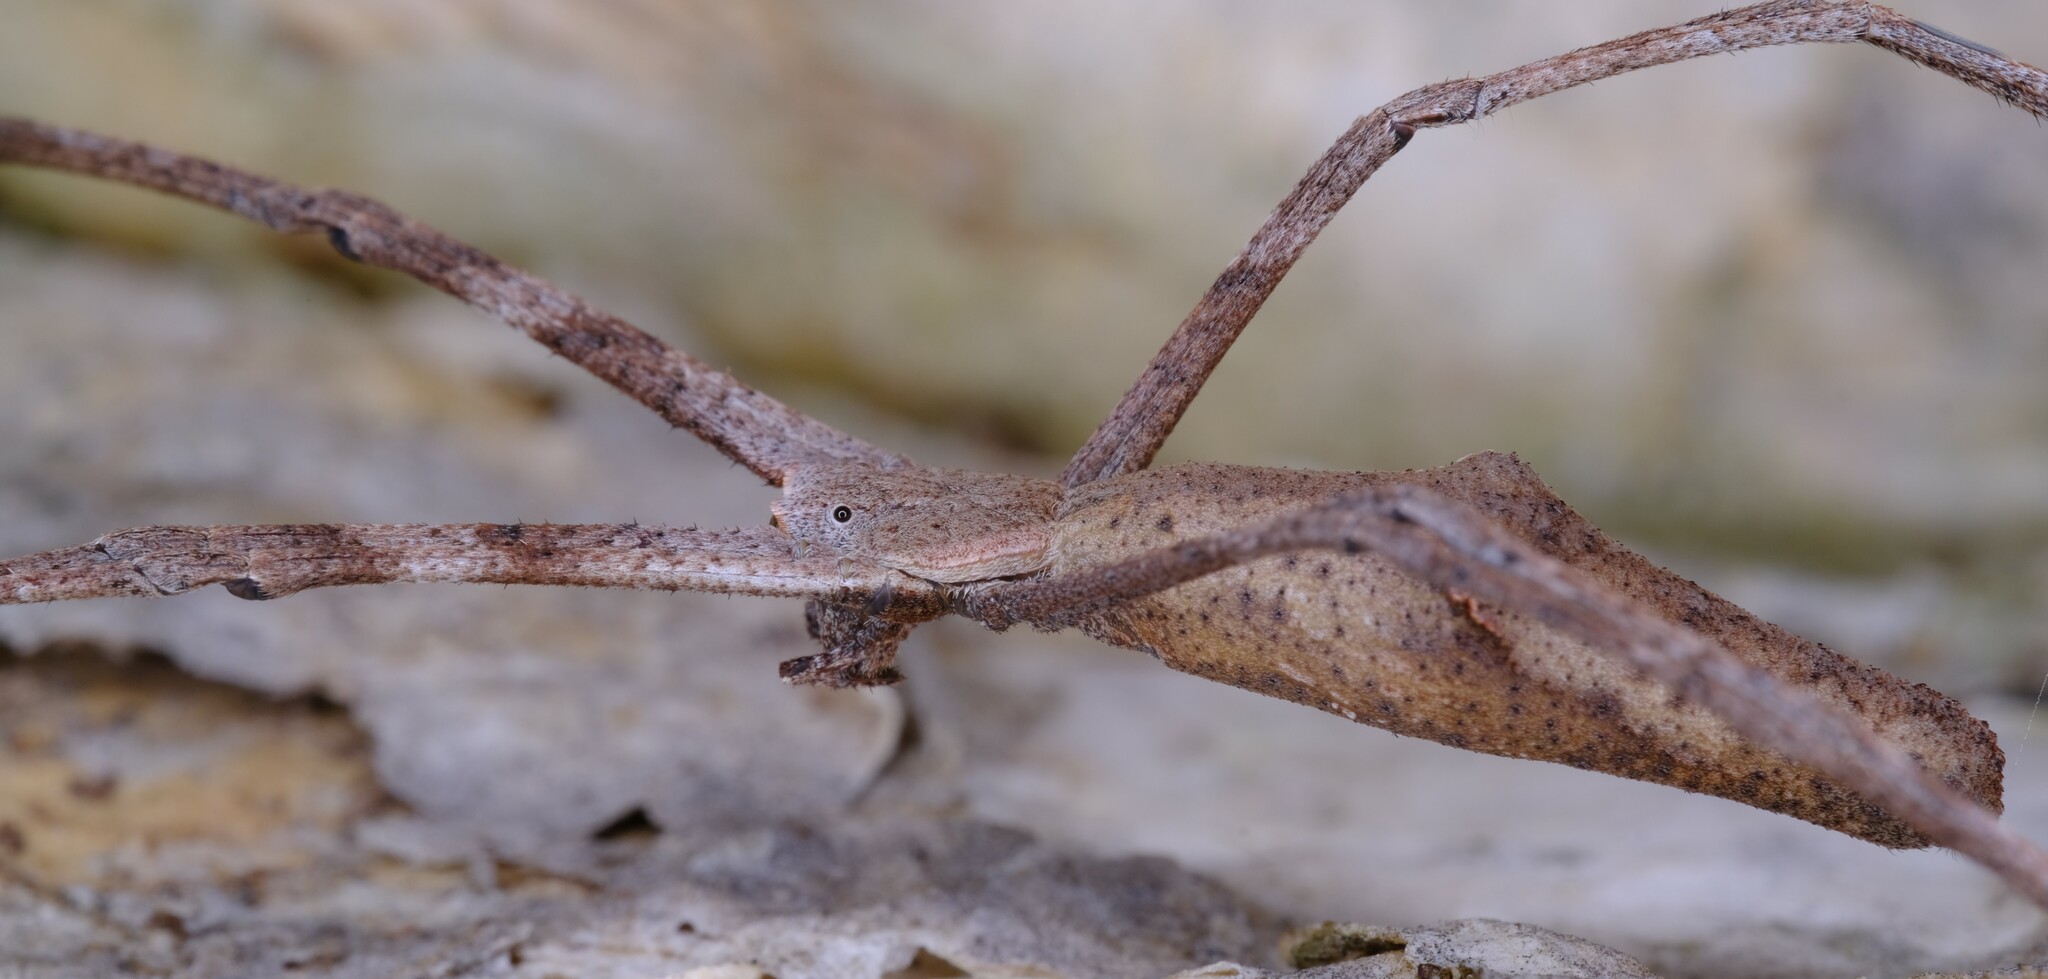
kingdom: Animalia
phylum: Arthropoda
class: Arachnida
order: Araneae
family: Deinopidae
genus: Deinopis
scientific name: Deinopis subrufa
